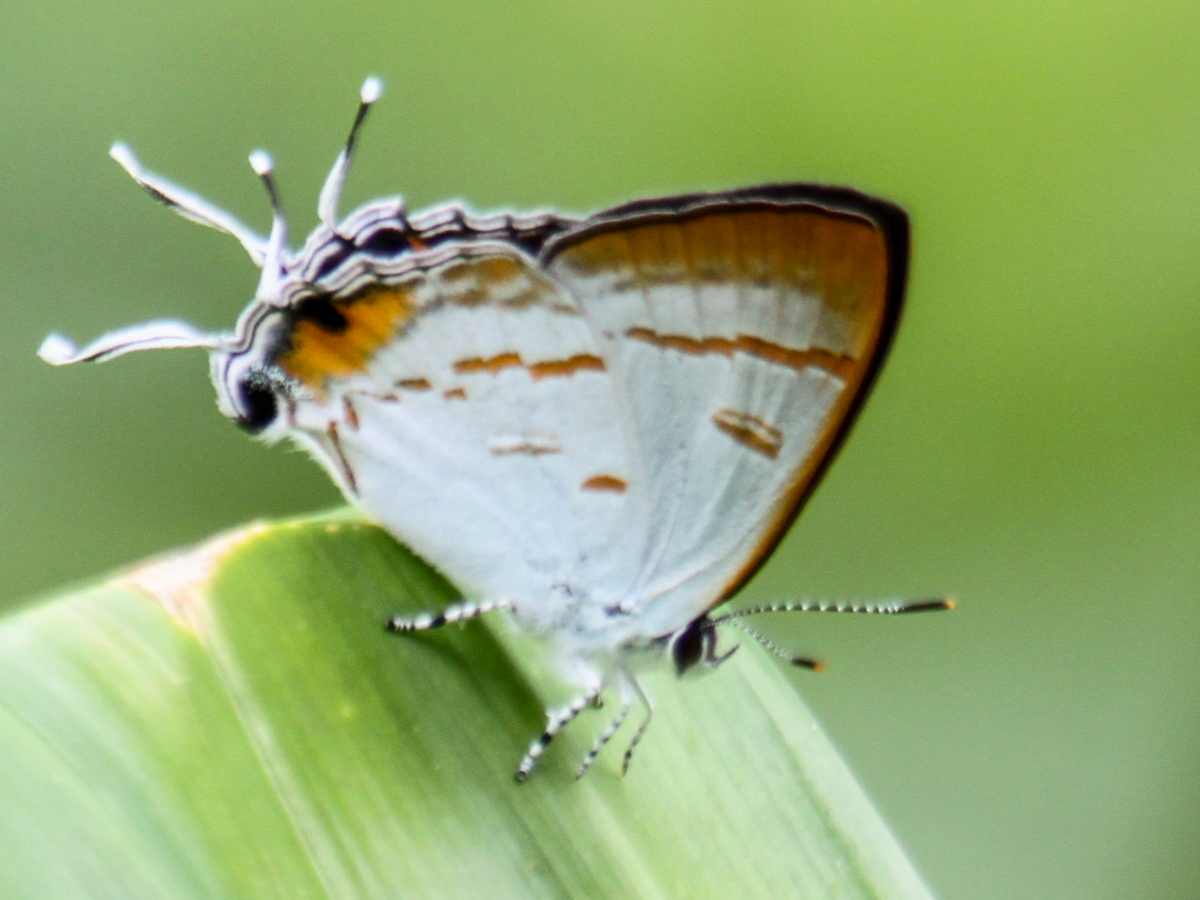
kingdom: Animalia
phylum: Arthropoda
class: Insecta
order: Lepidoptera
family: Lycaenidae
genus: Hypolycaena
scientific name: Hypolycaena thecloides
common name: Dark tit
